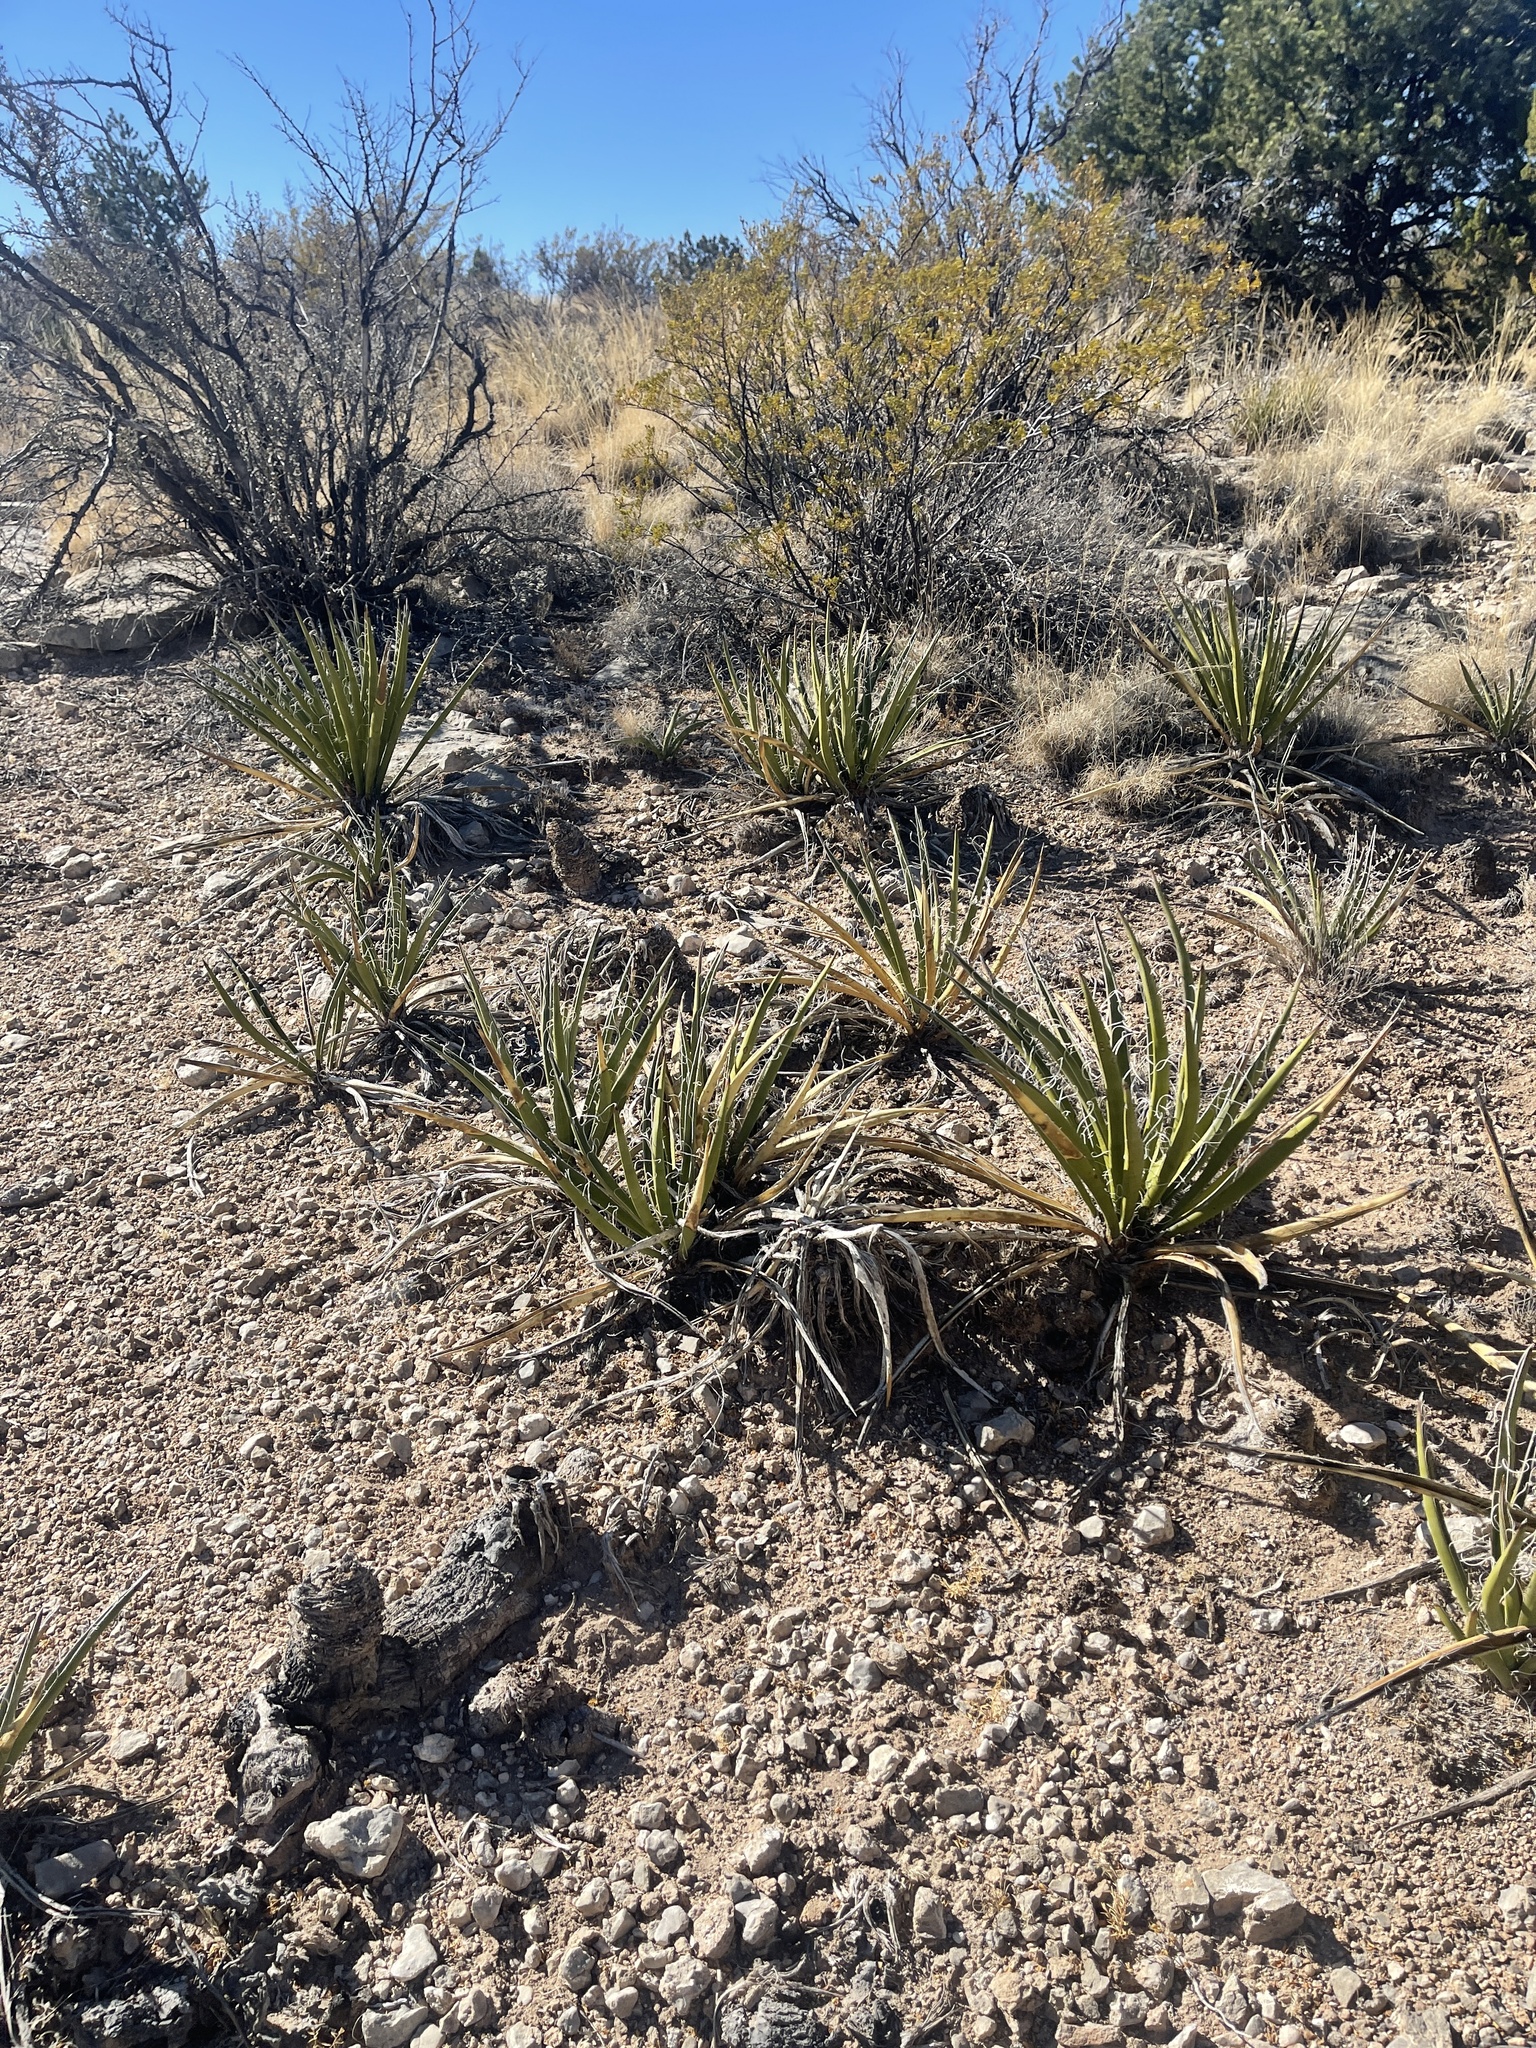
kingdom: Plantae
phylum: Tracheophyta
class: Liliopsida
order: Asparagales
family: Asparagaceae
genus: Yucca
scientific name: Yucca baccata
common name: Banana yucca
